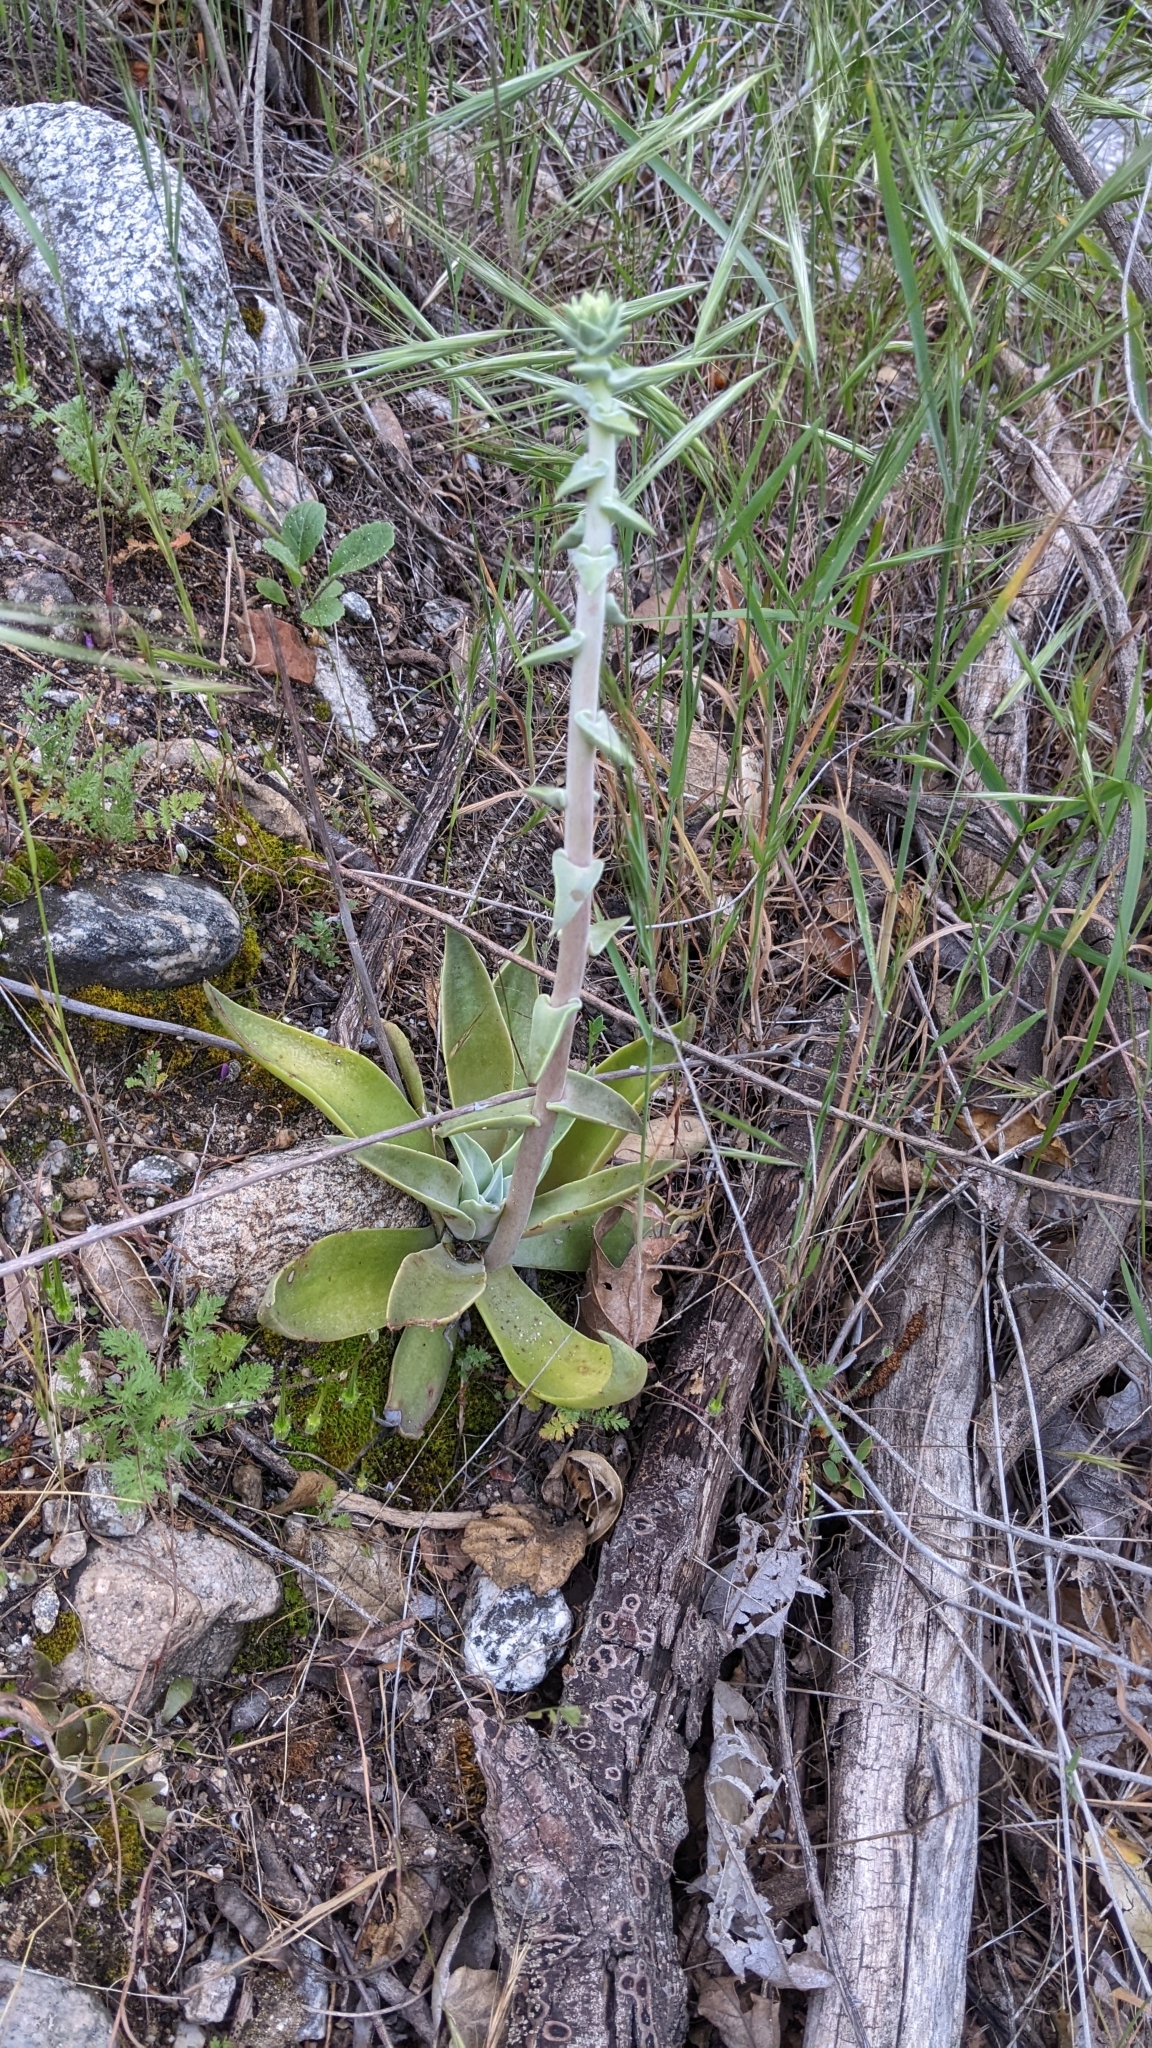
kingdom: Plantae
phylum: Tracheophyta
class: Magnoliopsida
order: Saxifragales
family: Crassulaceae
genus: Dudleya
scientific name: Dudleya lanceolata
